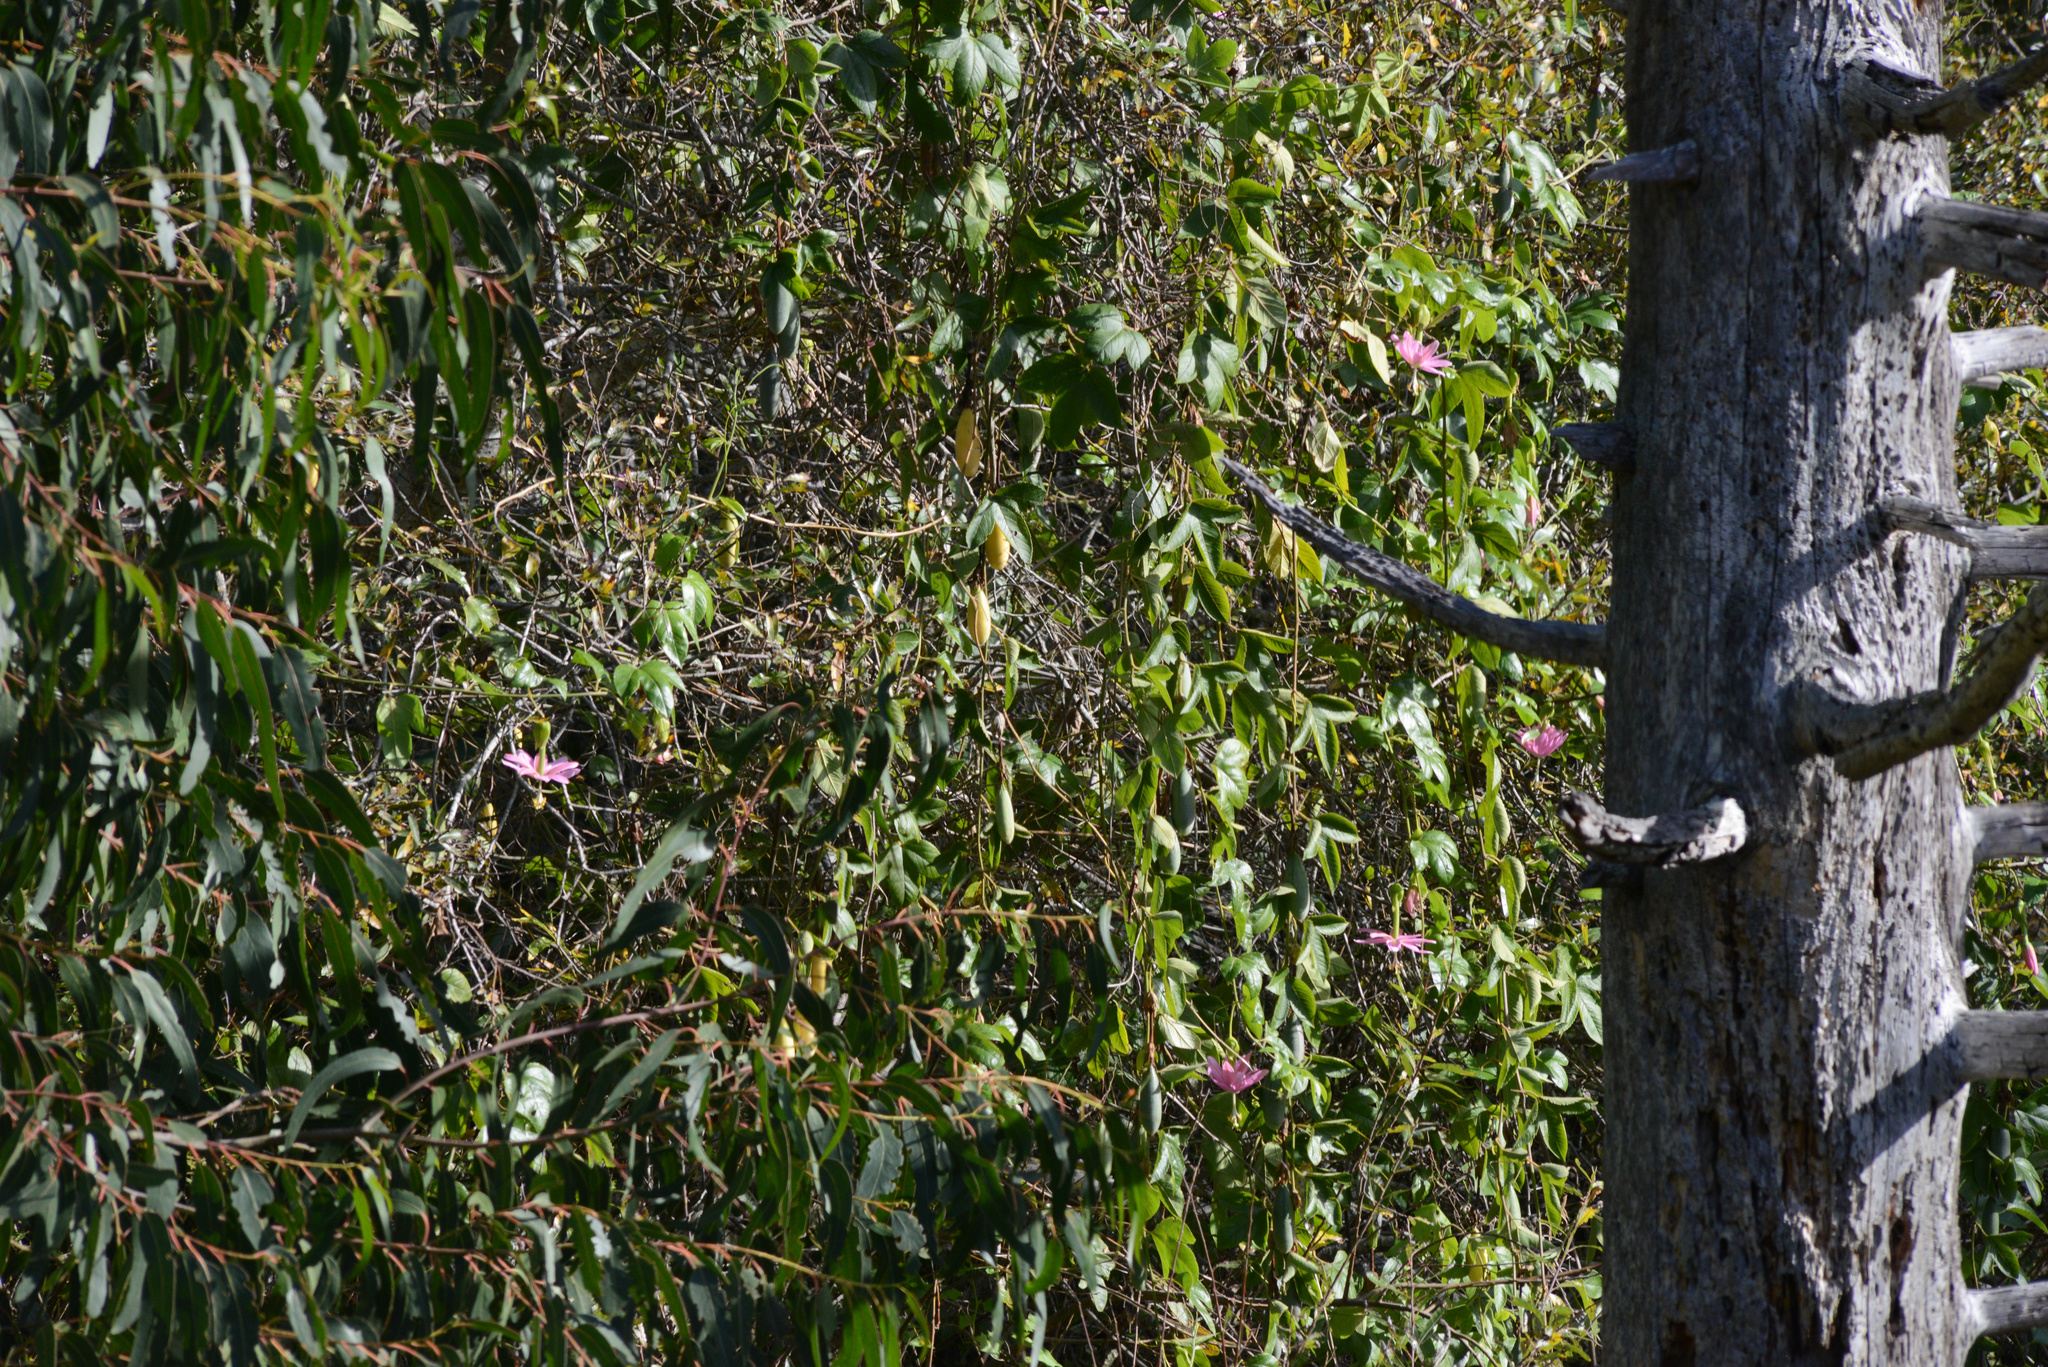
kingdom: Plantae
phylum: Tracheophyta
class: Magnoliopsida
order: Malpighiales
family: Passifloraceae
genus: Passiflora
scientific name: Passiflora tarminiana
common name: Banana poka
